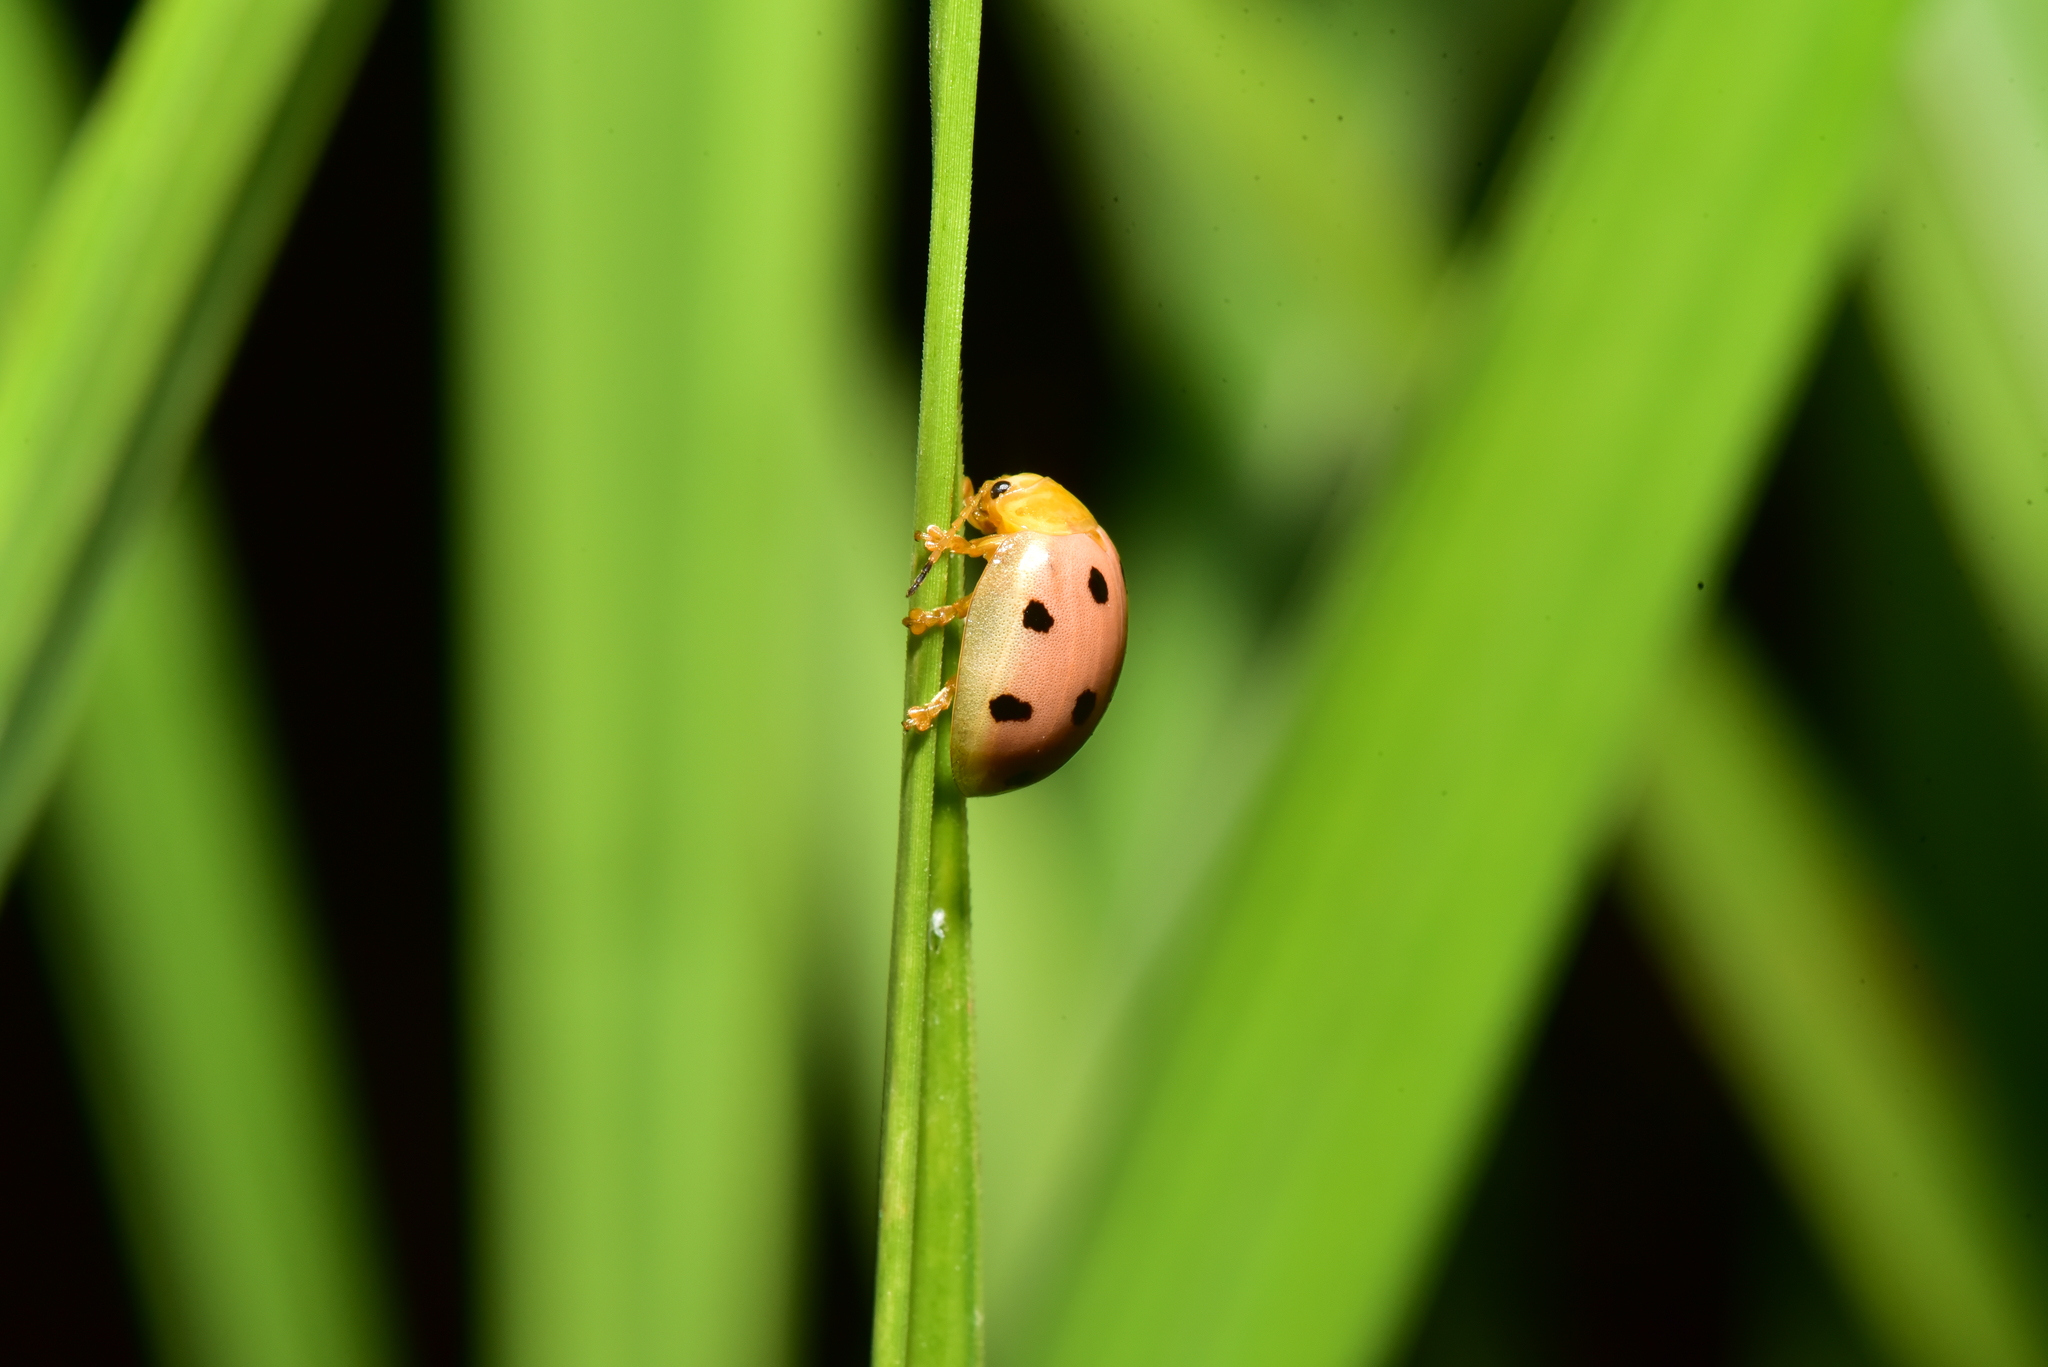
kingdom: Animalia
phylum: Arthropoda
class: Insecta
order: Coleoptera
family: Chrysomelidae
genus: Oides
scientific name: Oides decempunctata
